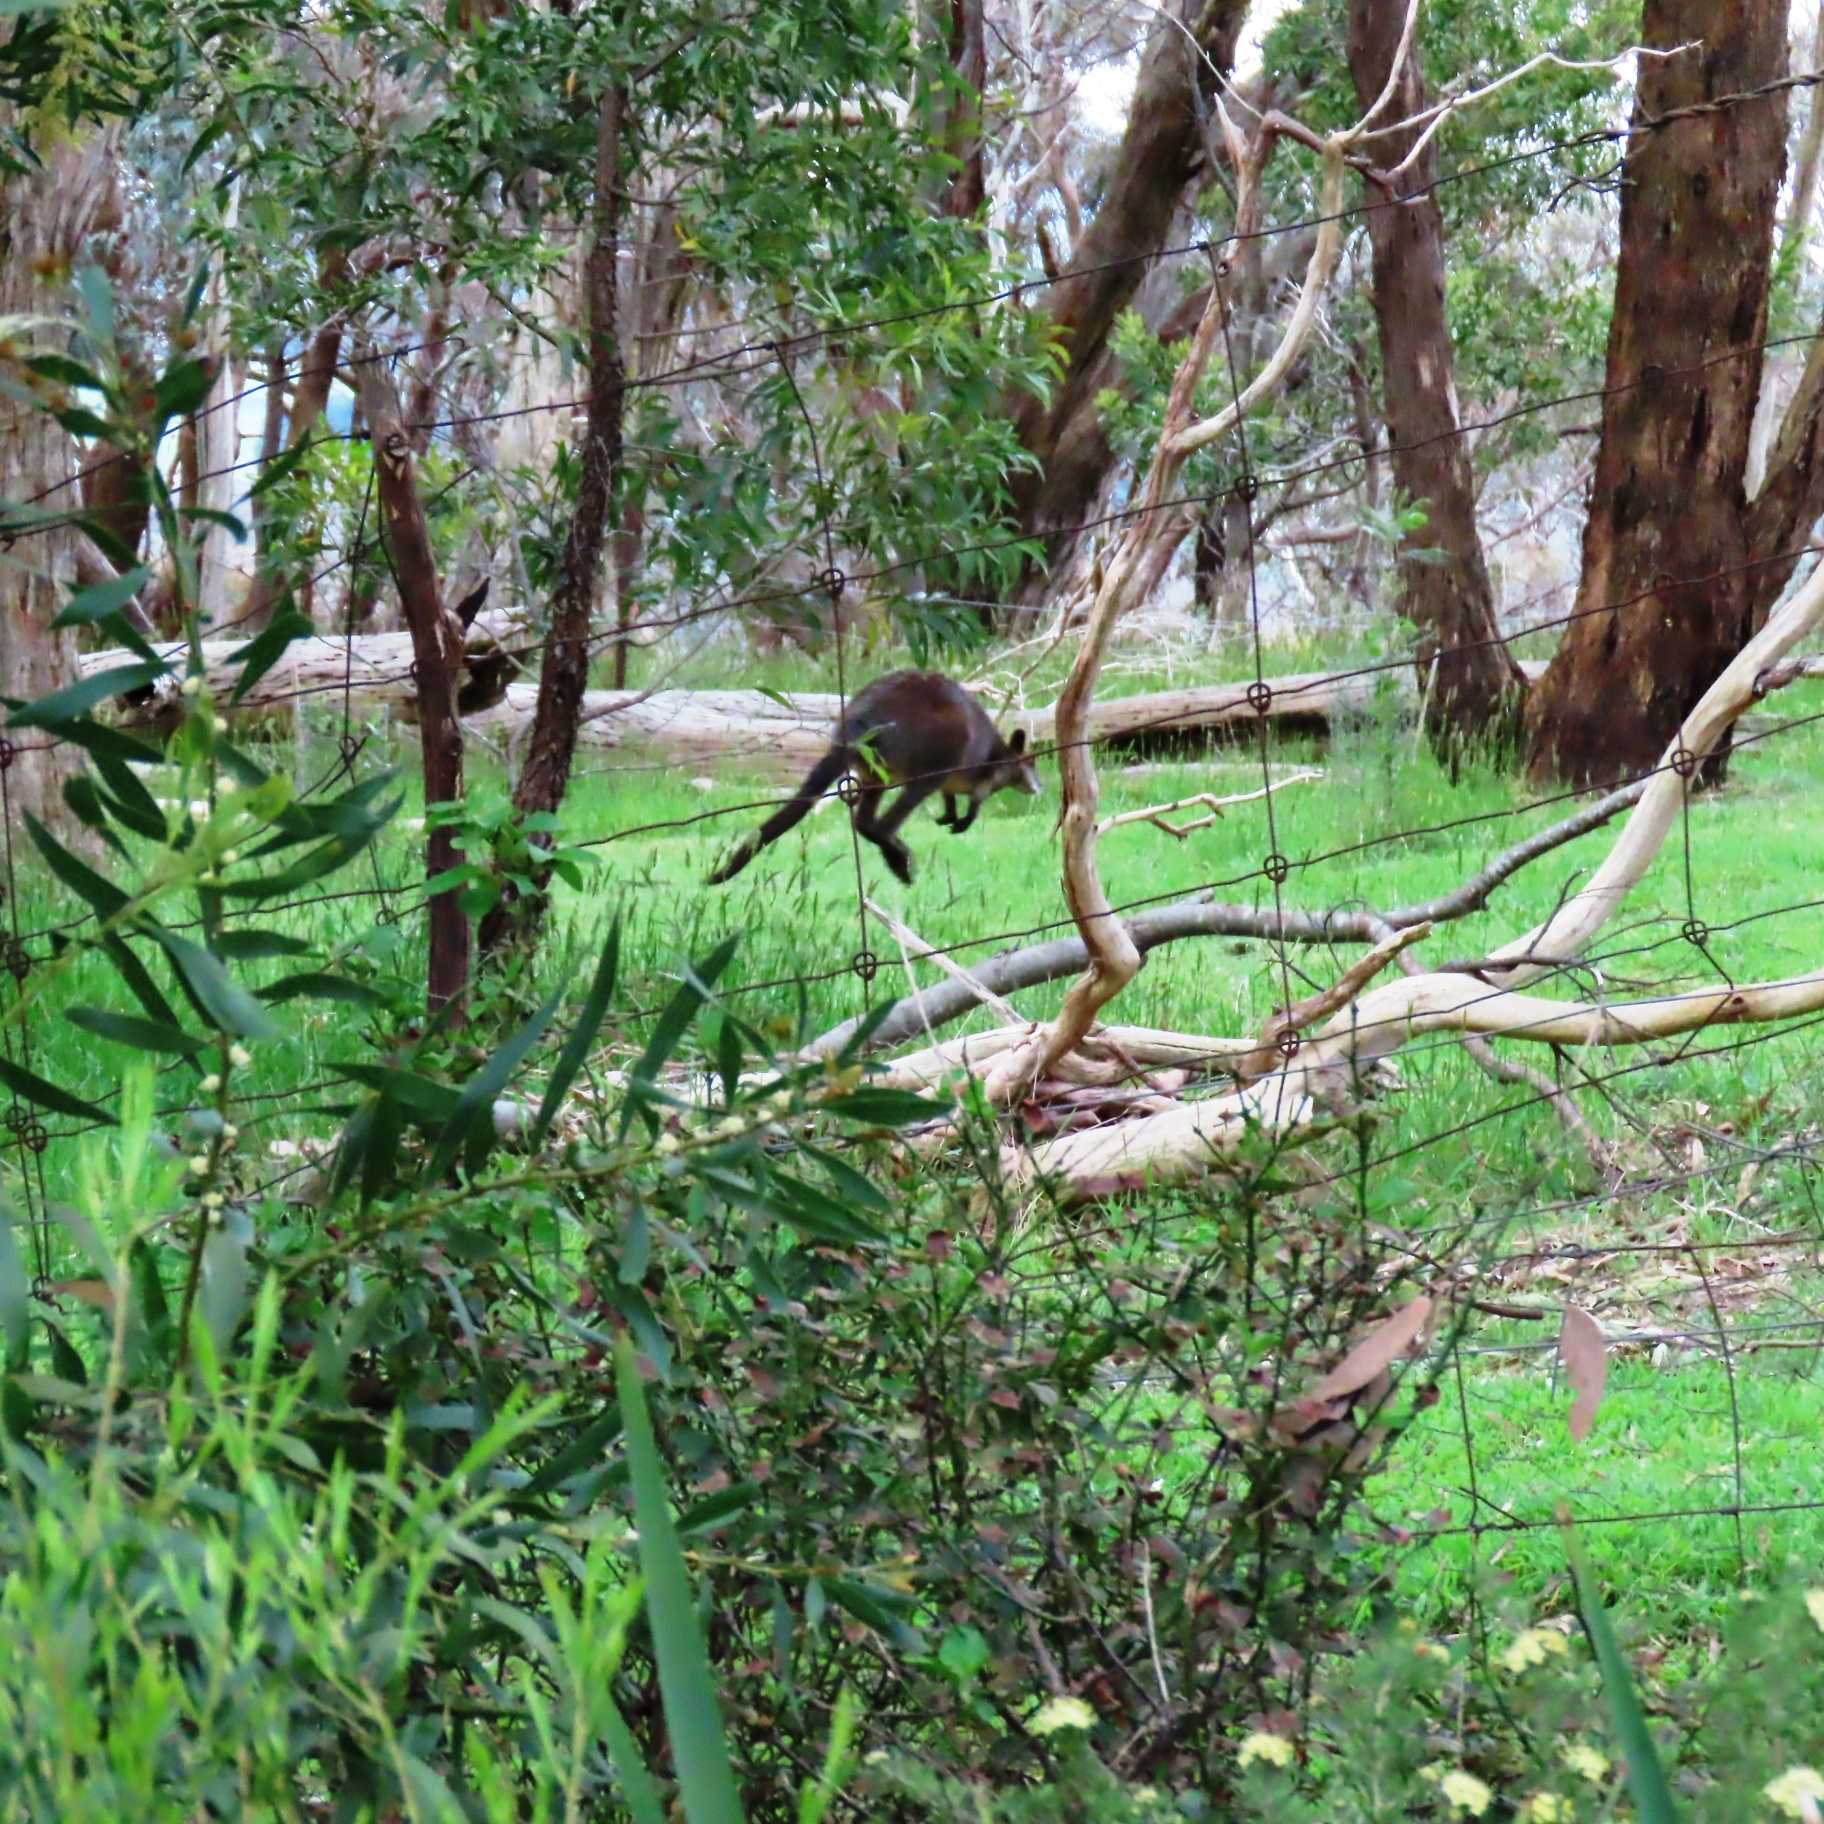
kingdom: Animalia
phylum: Chordata
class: Mammalia
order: Diprotodontia
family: Macropodidae
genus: Wallabia
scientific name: Wallabia bicolor
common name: Swamp wallaby
